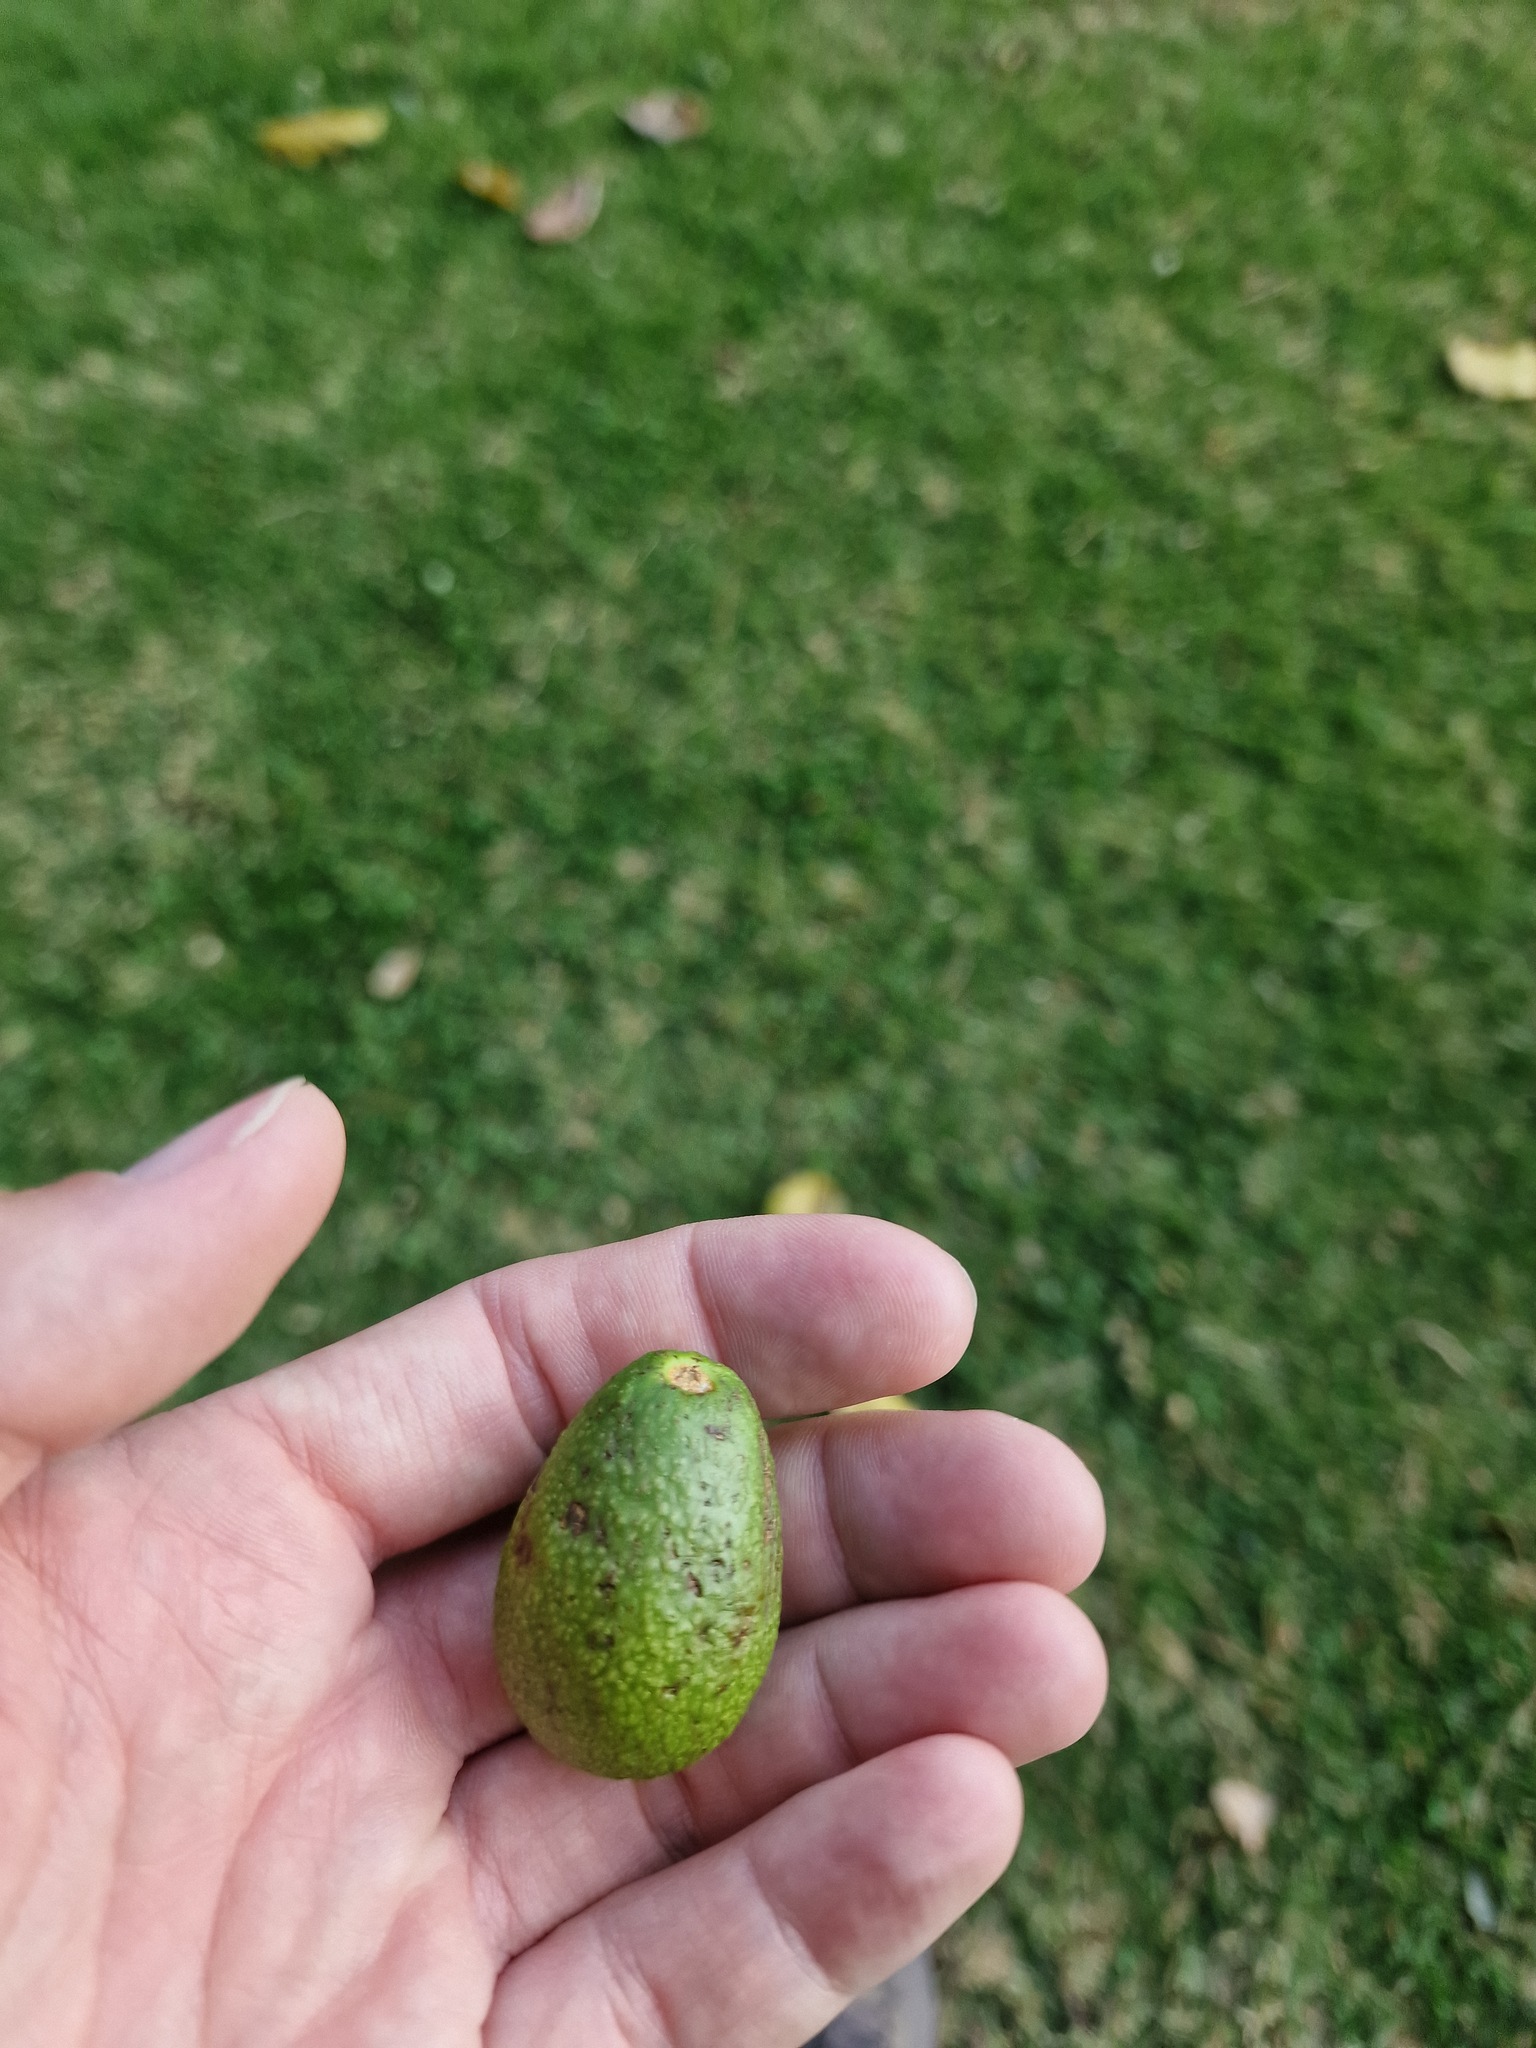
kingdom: Plantae
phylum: Tracheophyta
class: Magnoliopsida
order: Laurales
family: Lauraceae
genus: Persea
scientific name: Persea americana
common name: Avocado
